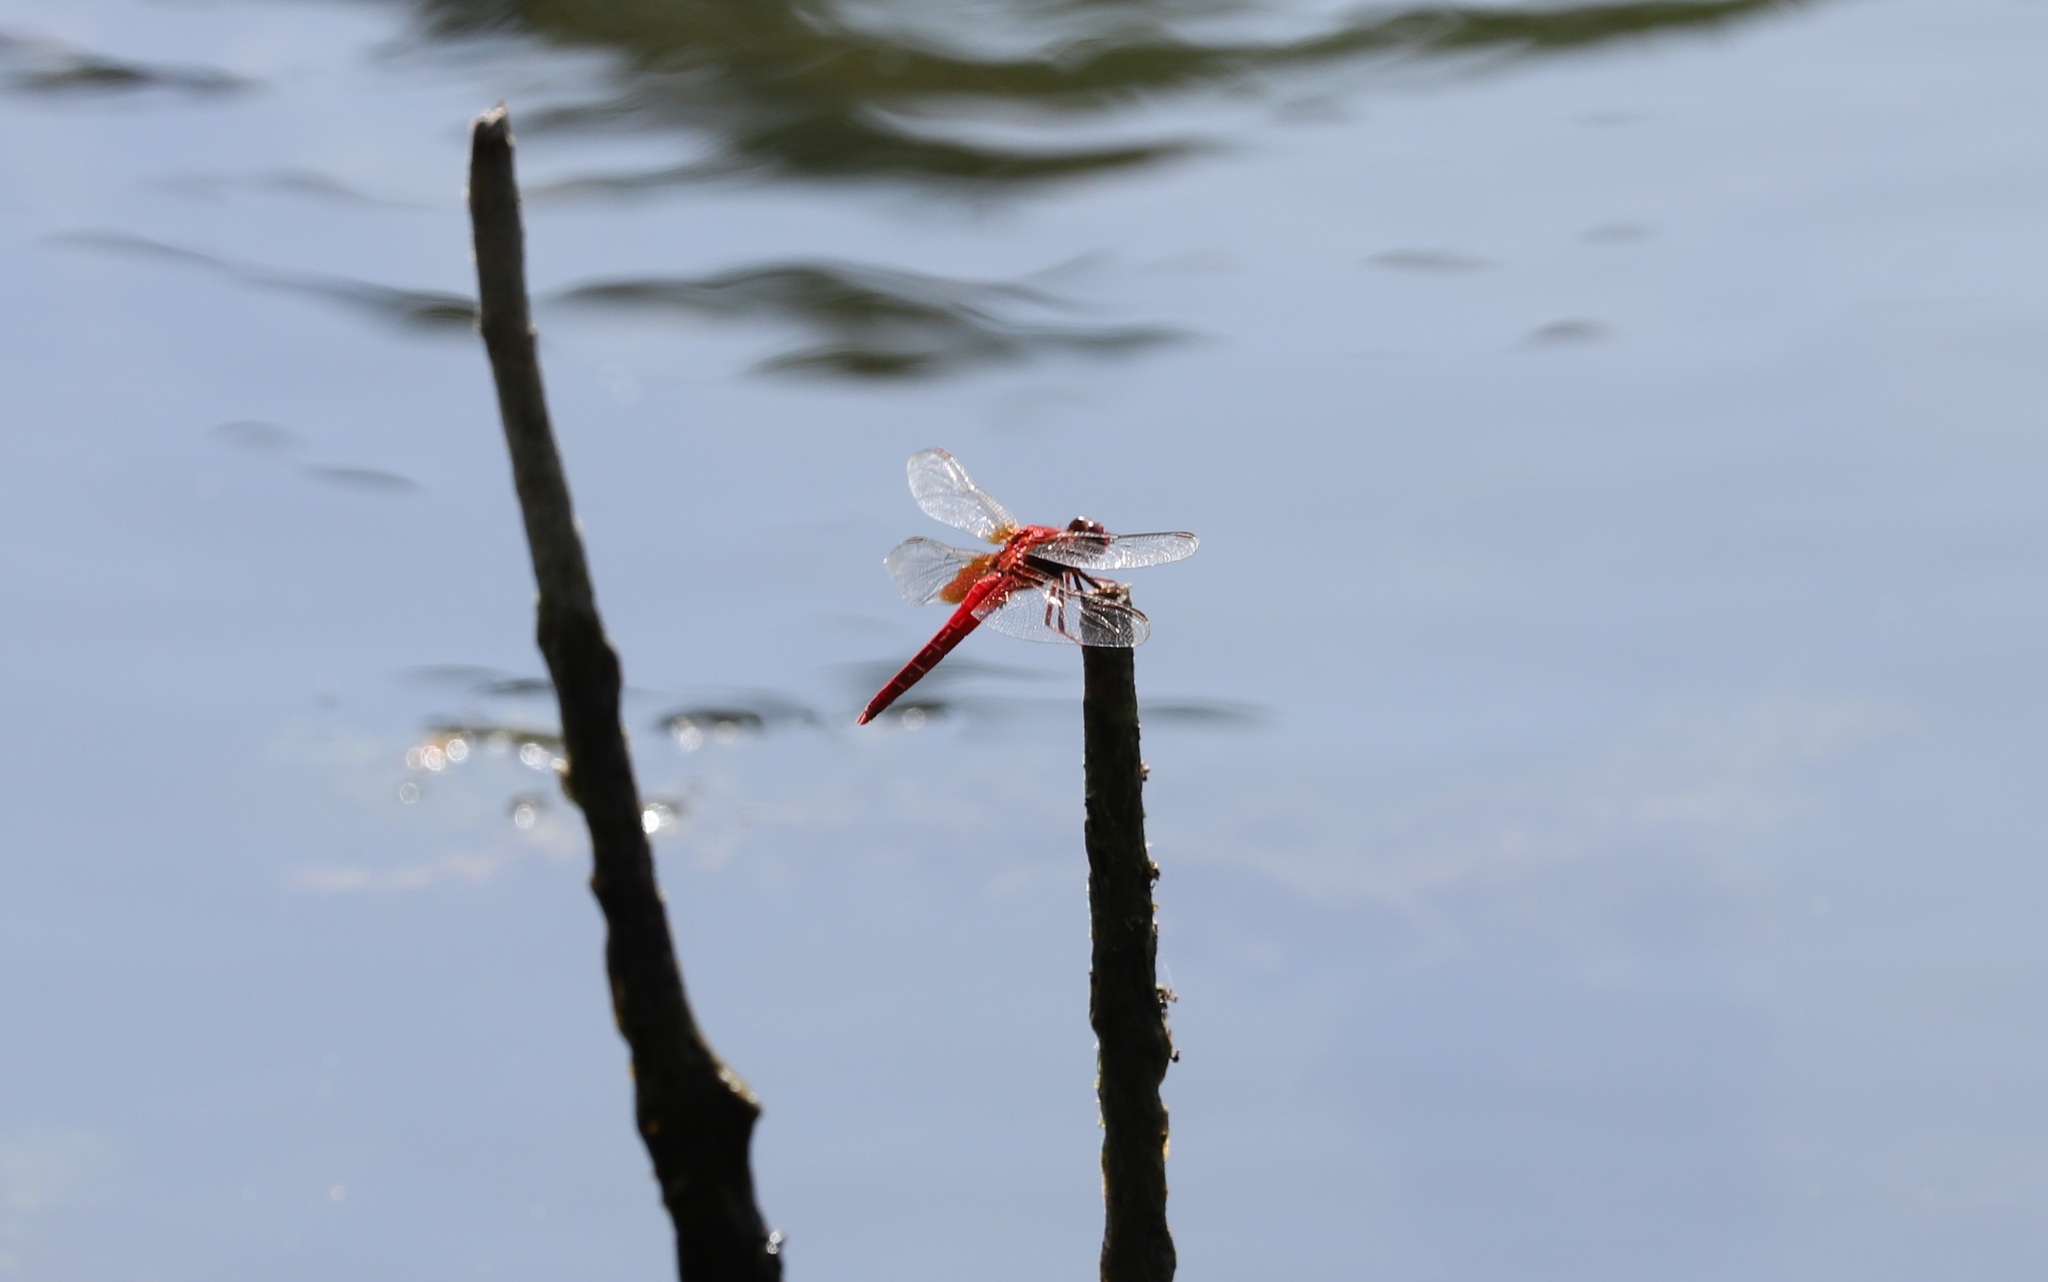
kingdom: Animalia
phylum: Arthropoda
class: Insecta
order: Odonata
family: Libellulidae
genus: Crocothemis
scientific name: Crocothemis servilia
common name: Scarlet skimmer
